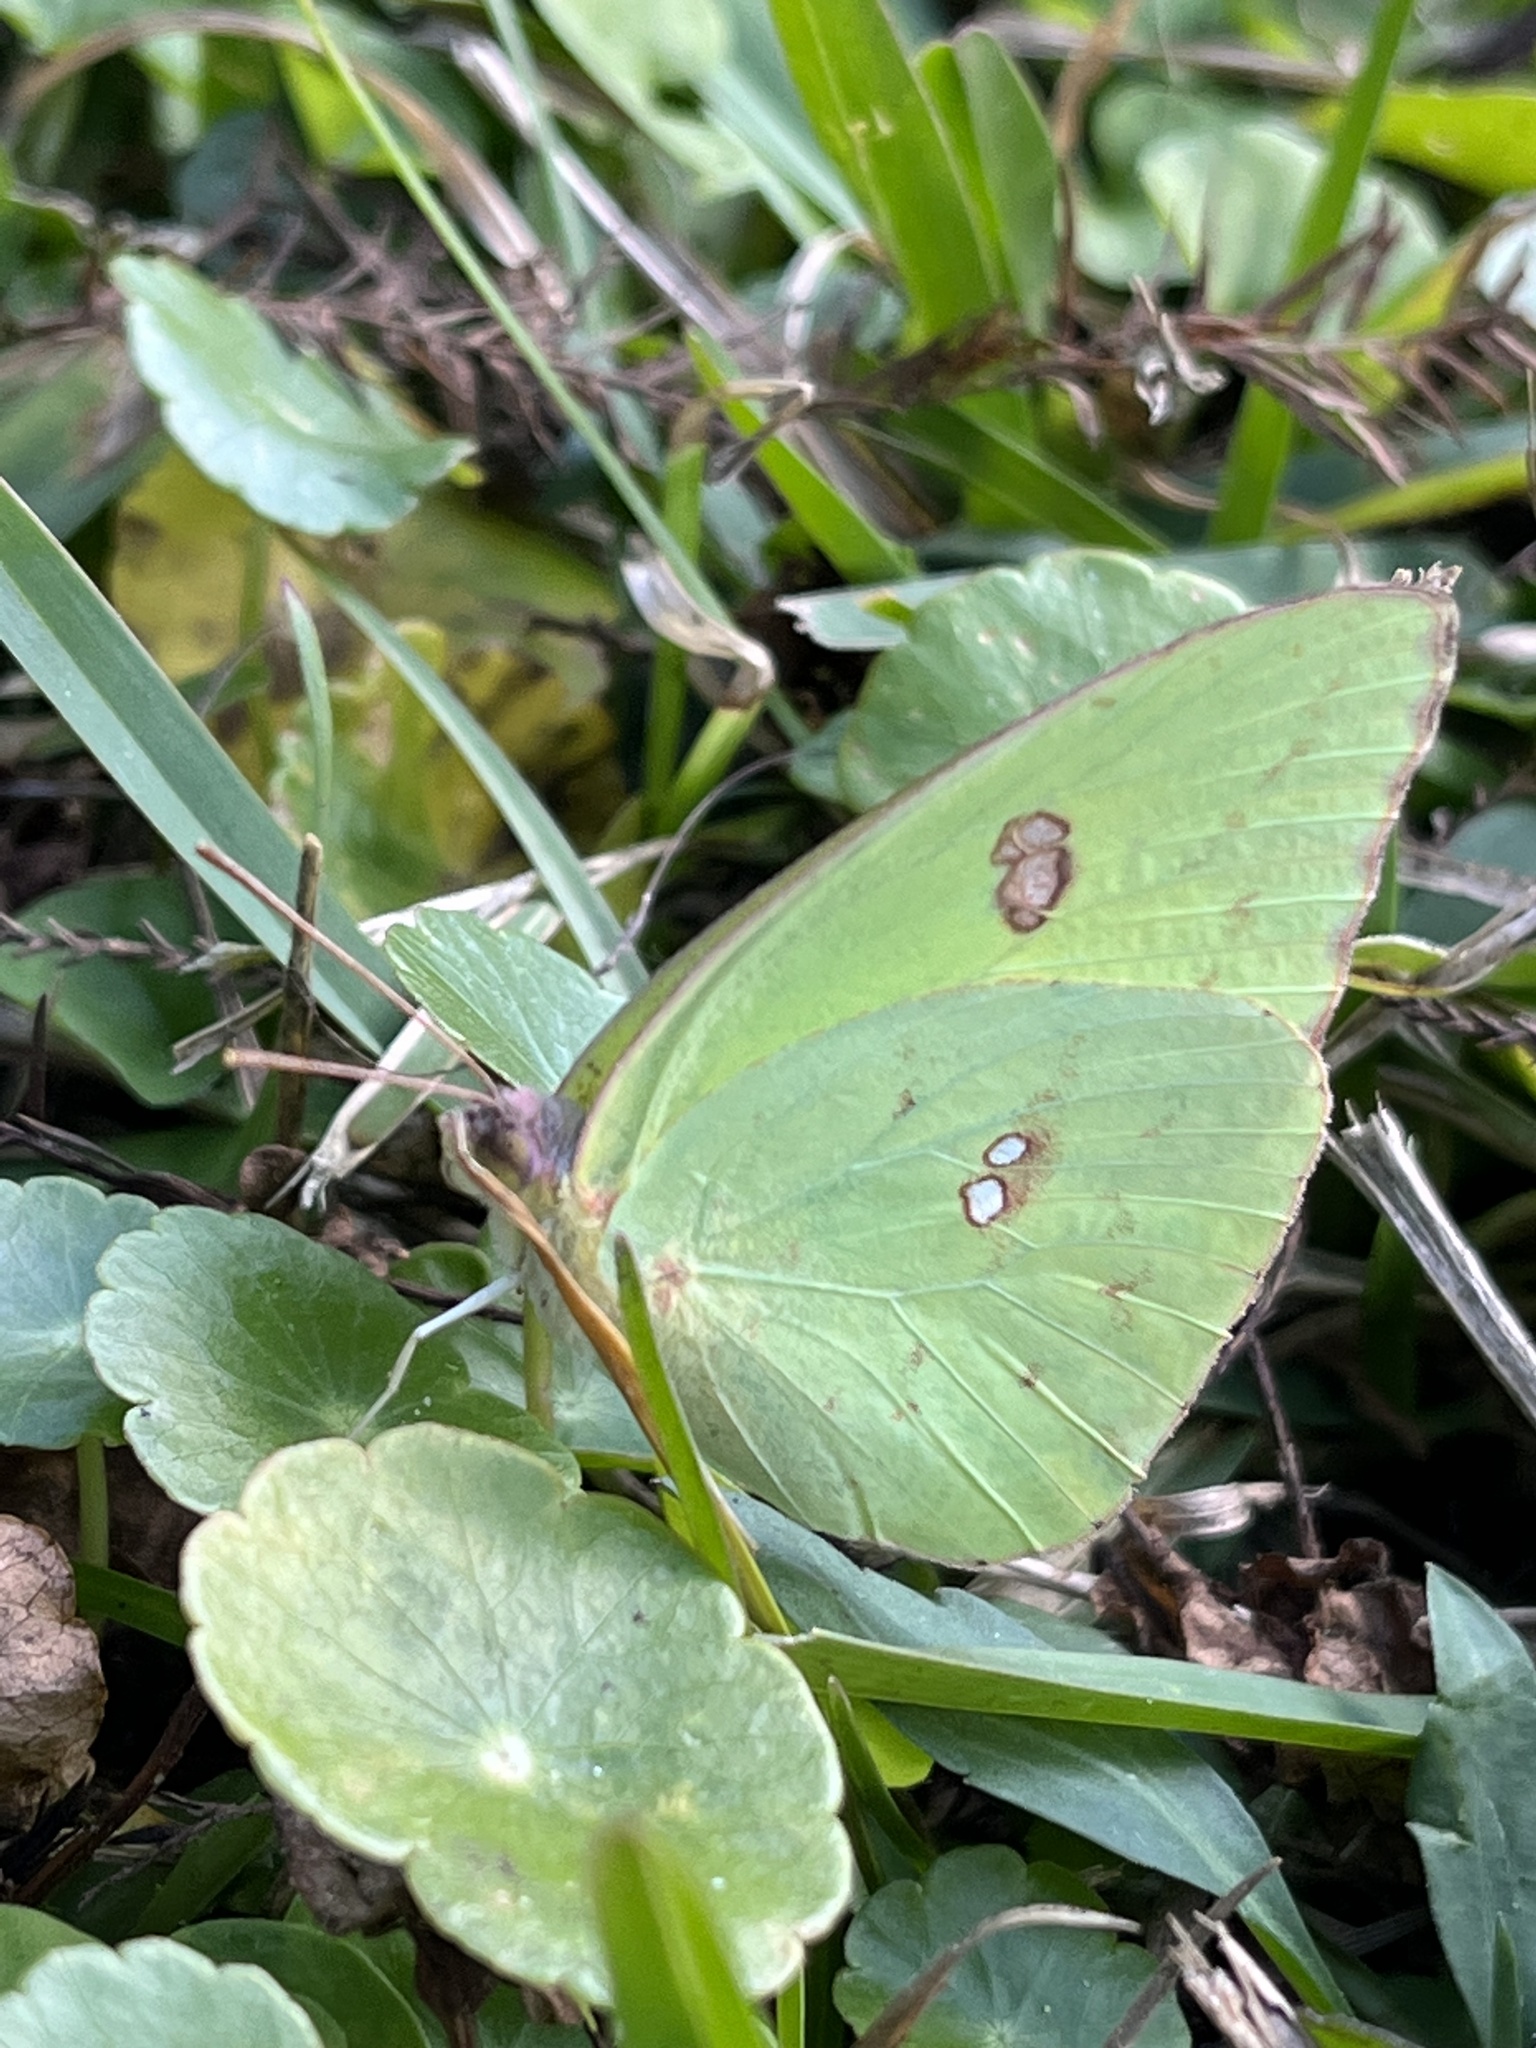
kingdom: Animalia
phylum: Arthropoda
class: Insecta
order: Lepidoptera
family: Pieridae
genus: Phoebis
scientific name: Phoebis sennae
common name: Cloudless sulphur
